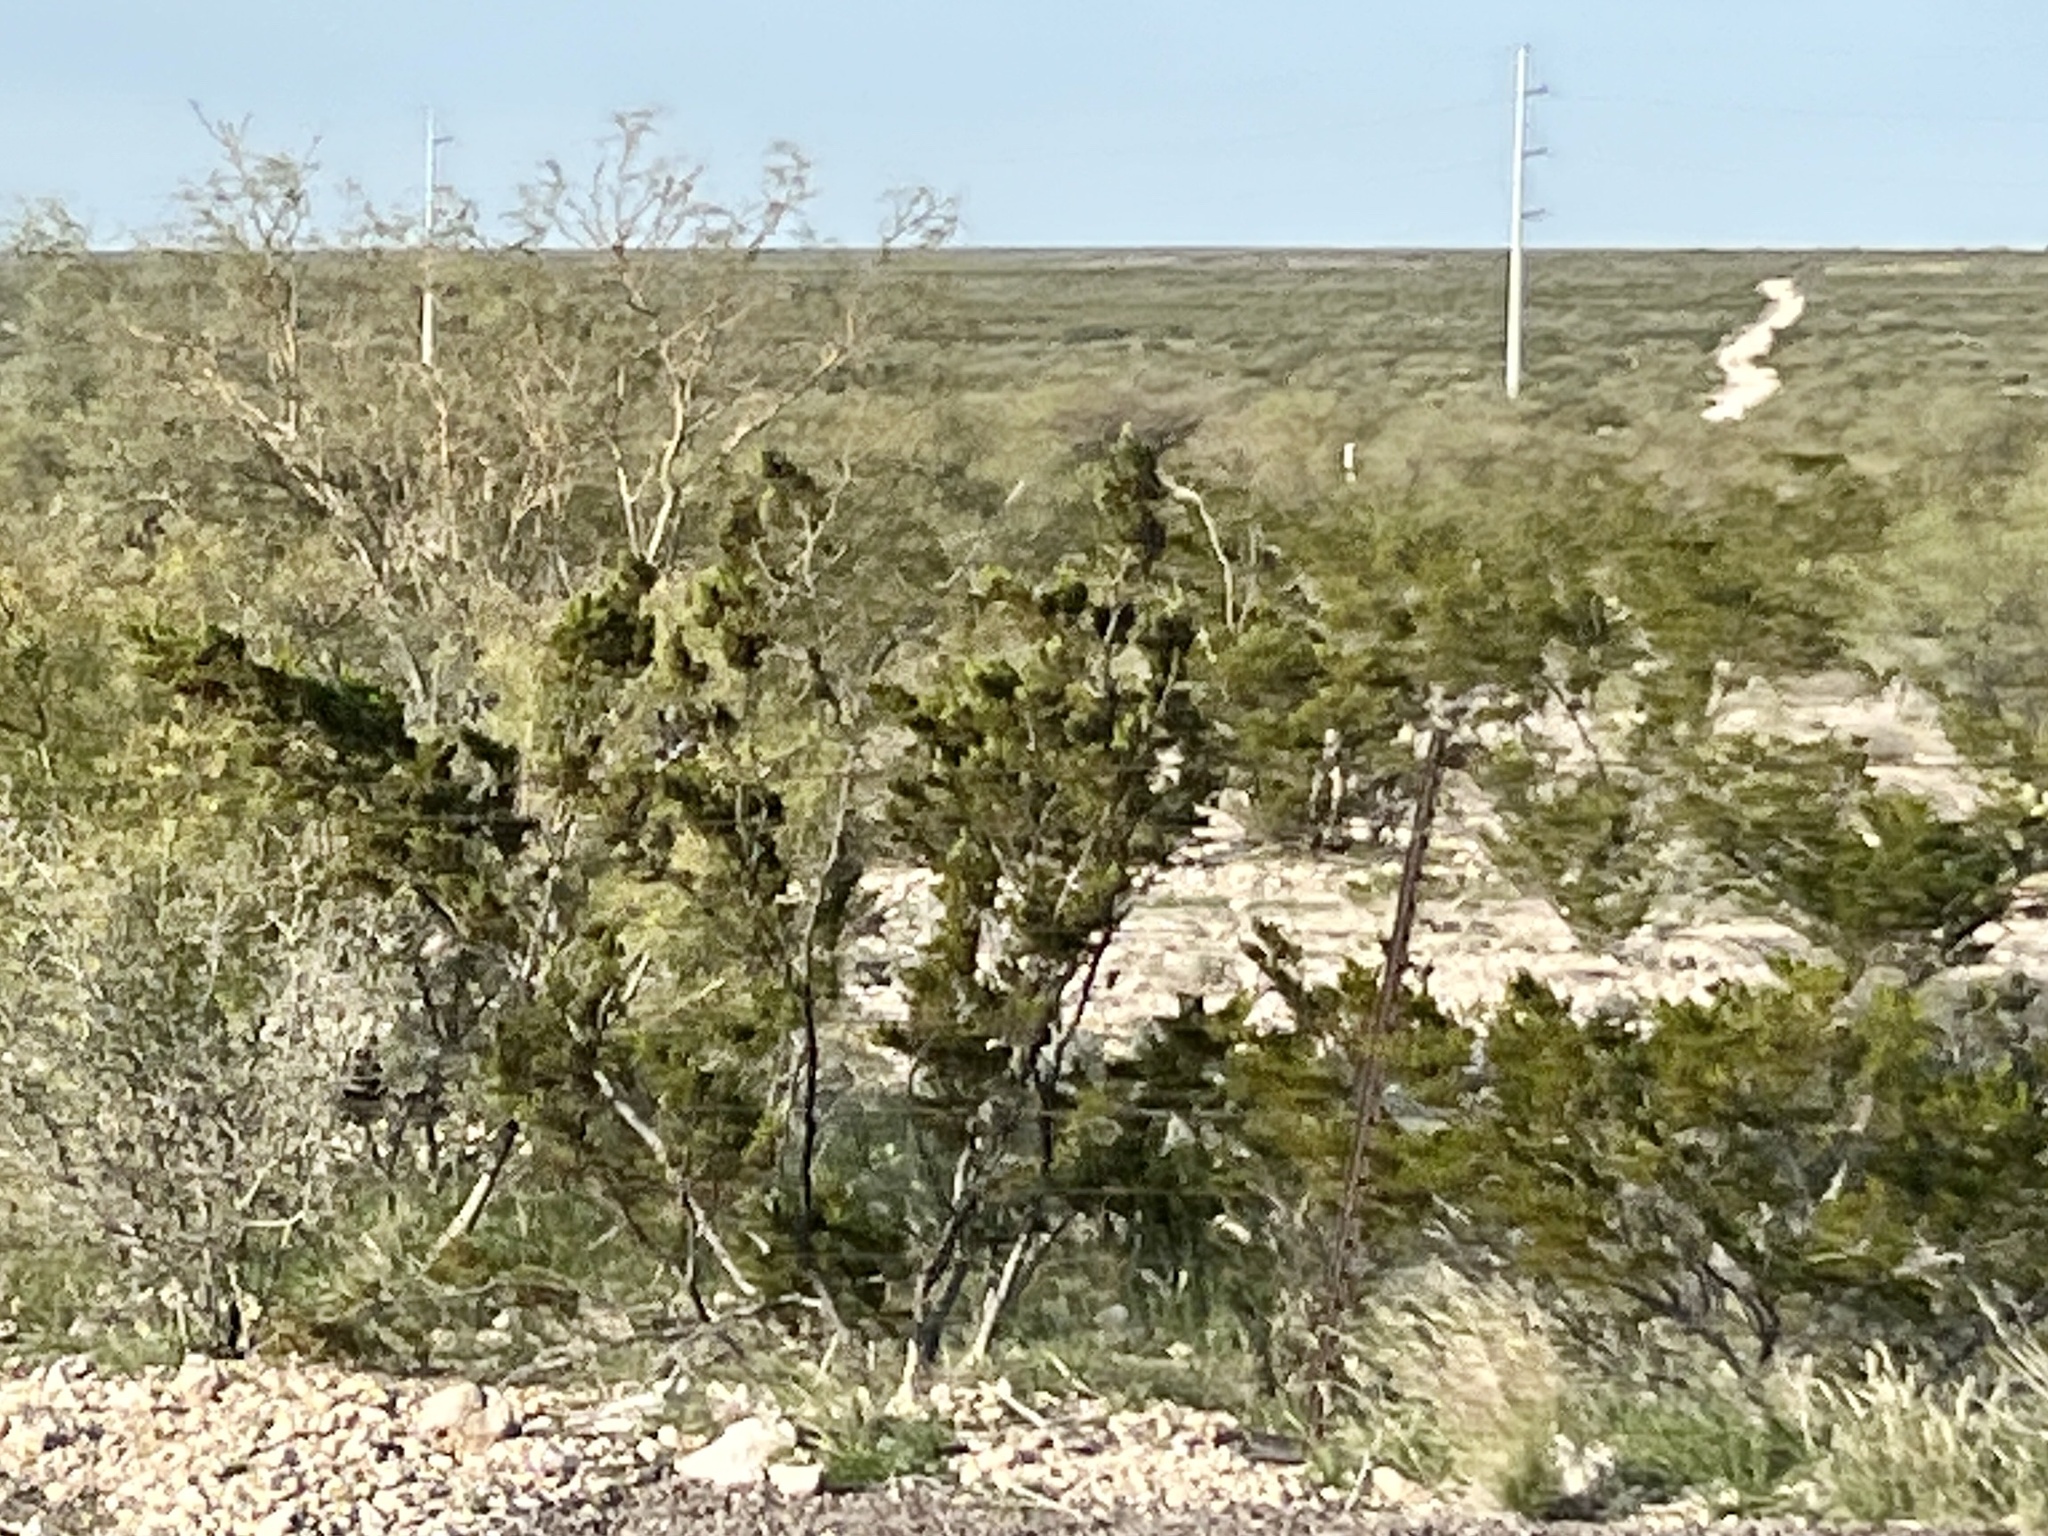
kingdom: Plantae
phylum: Tracheophyta
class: Magnoliopsida
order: Zygophyllales
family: Zygophyllaceae
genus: Larrea
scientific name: Larrea tridentata
